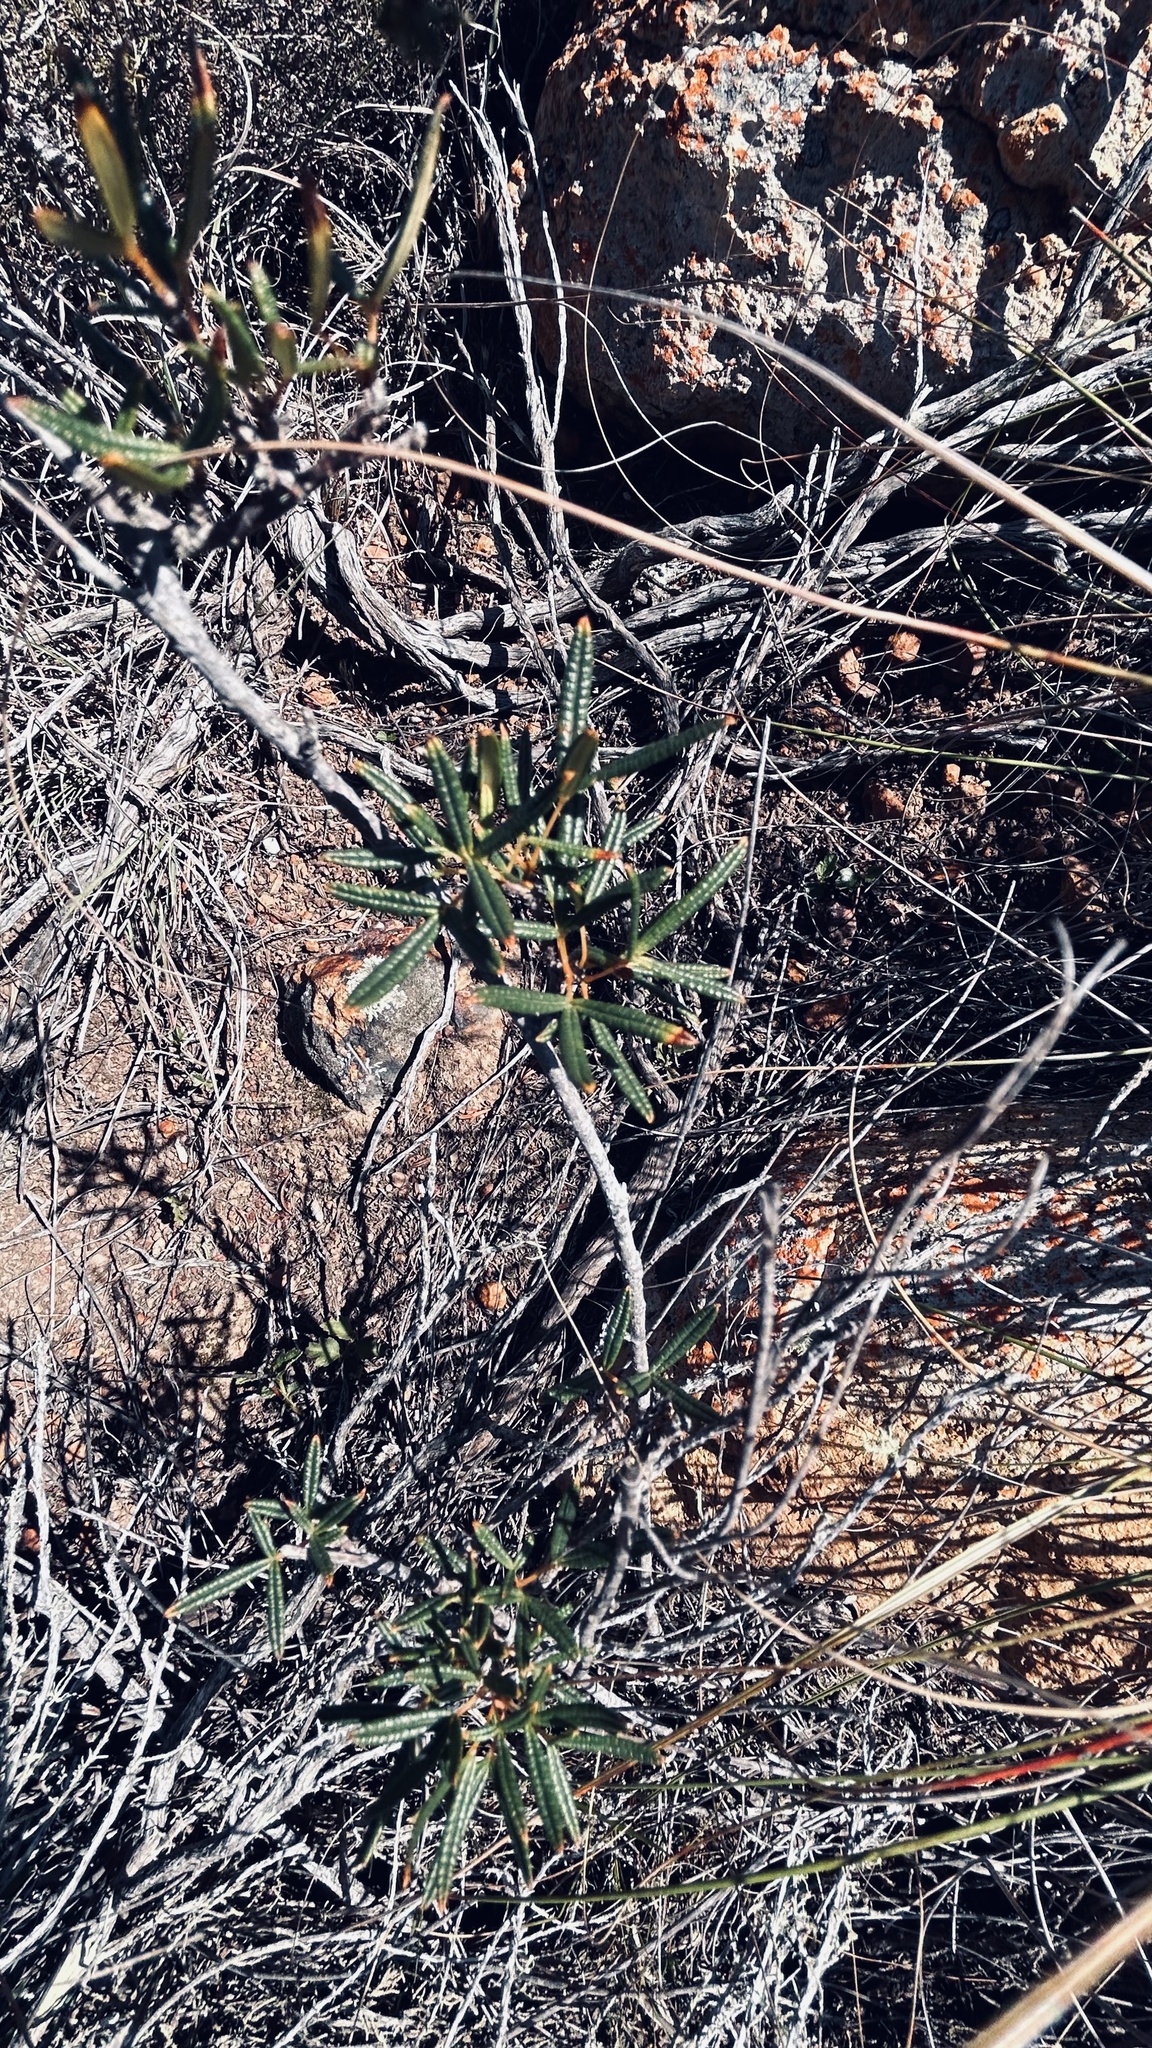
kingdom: Plantae
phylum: Tracheophyta
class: Magnoliopsida
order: Sapindales
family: Anacardiaceae
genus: Searsia
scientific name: Searsia rosmarinifolia
